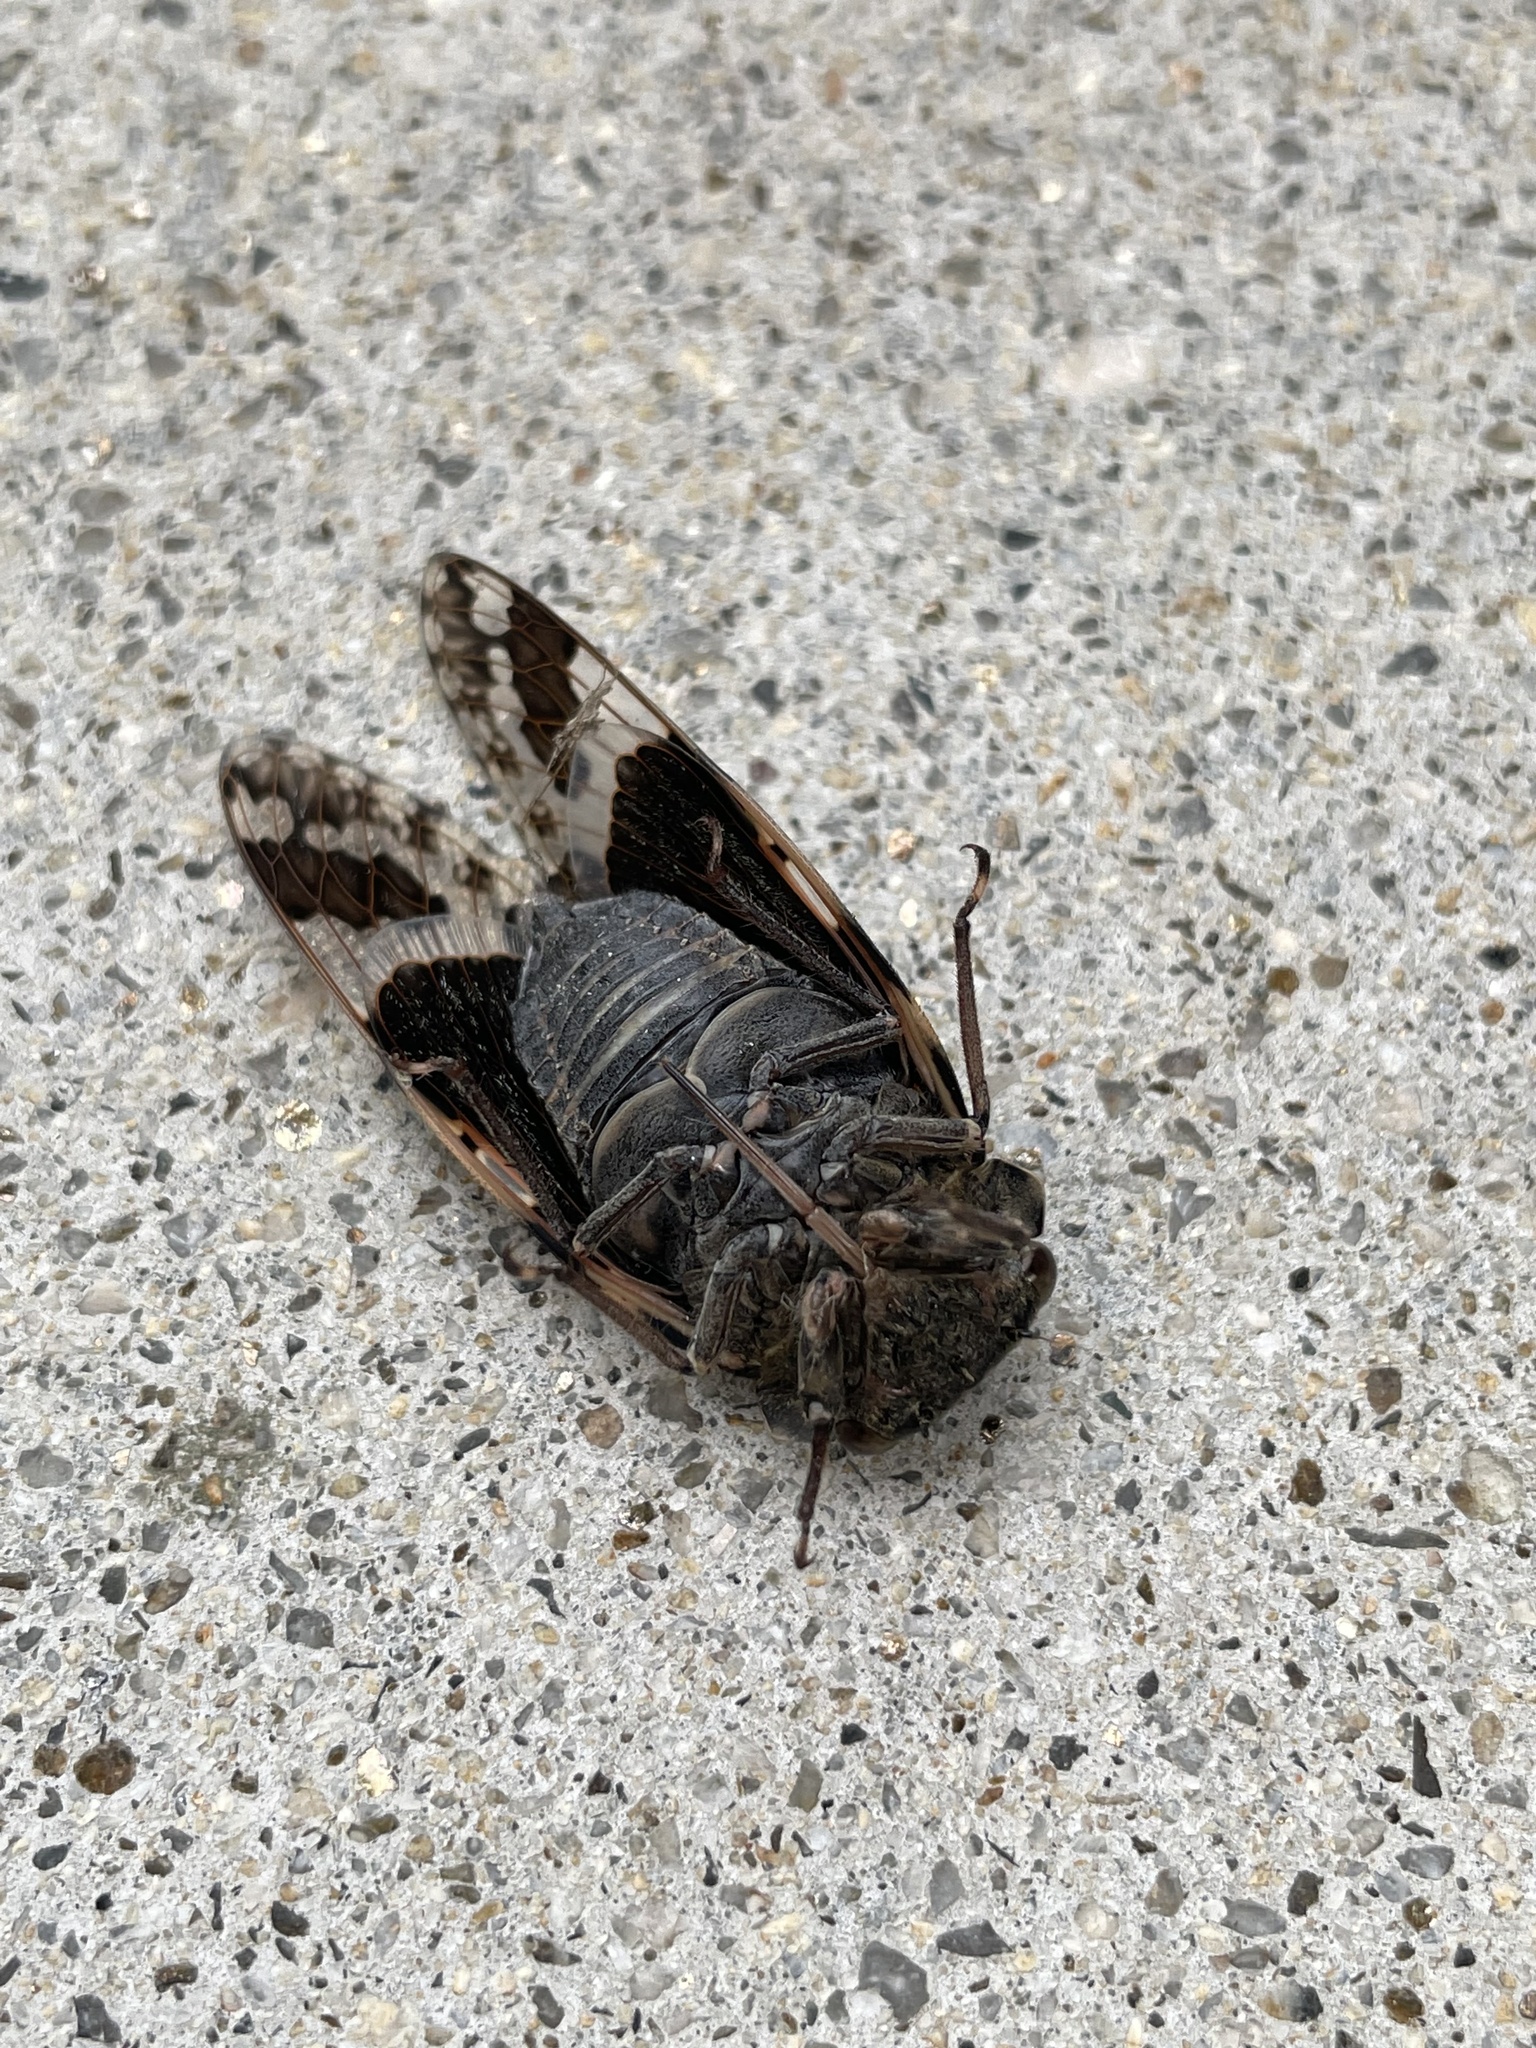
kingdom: Animalia
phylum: Arthropoda
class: Insecta
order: Hemiptera
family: Cicadidae
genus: Platypleura
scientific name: Platypleura kaempferi
